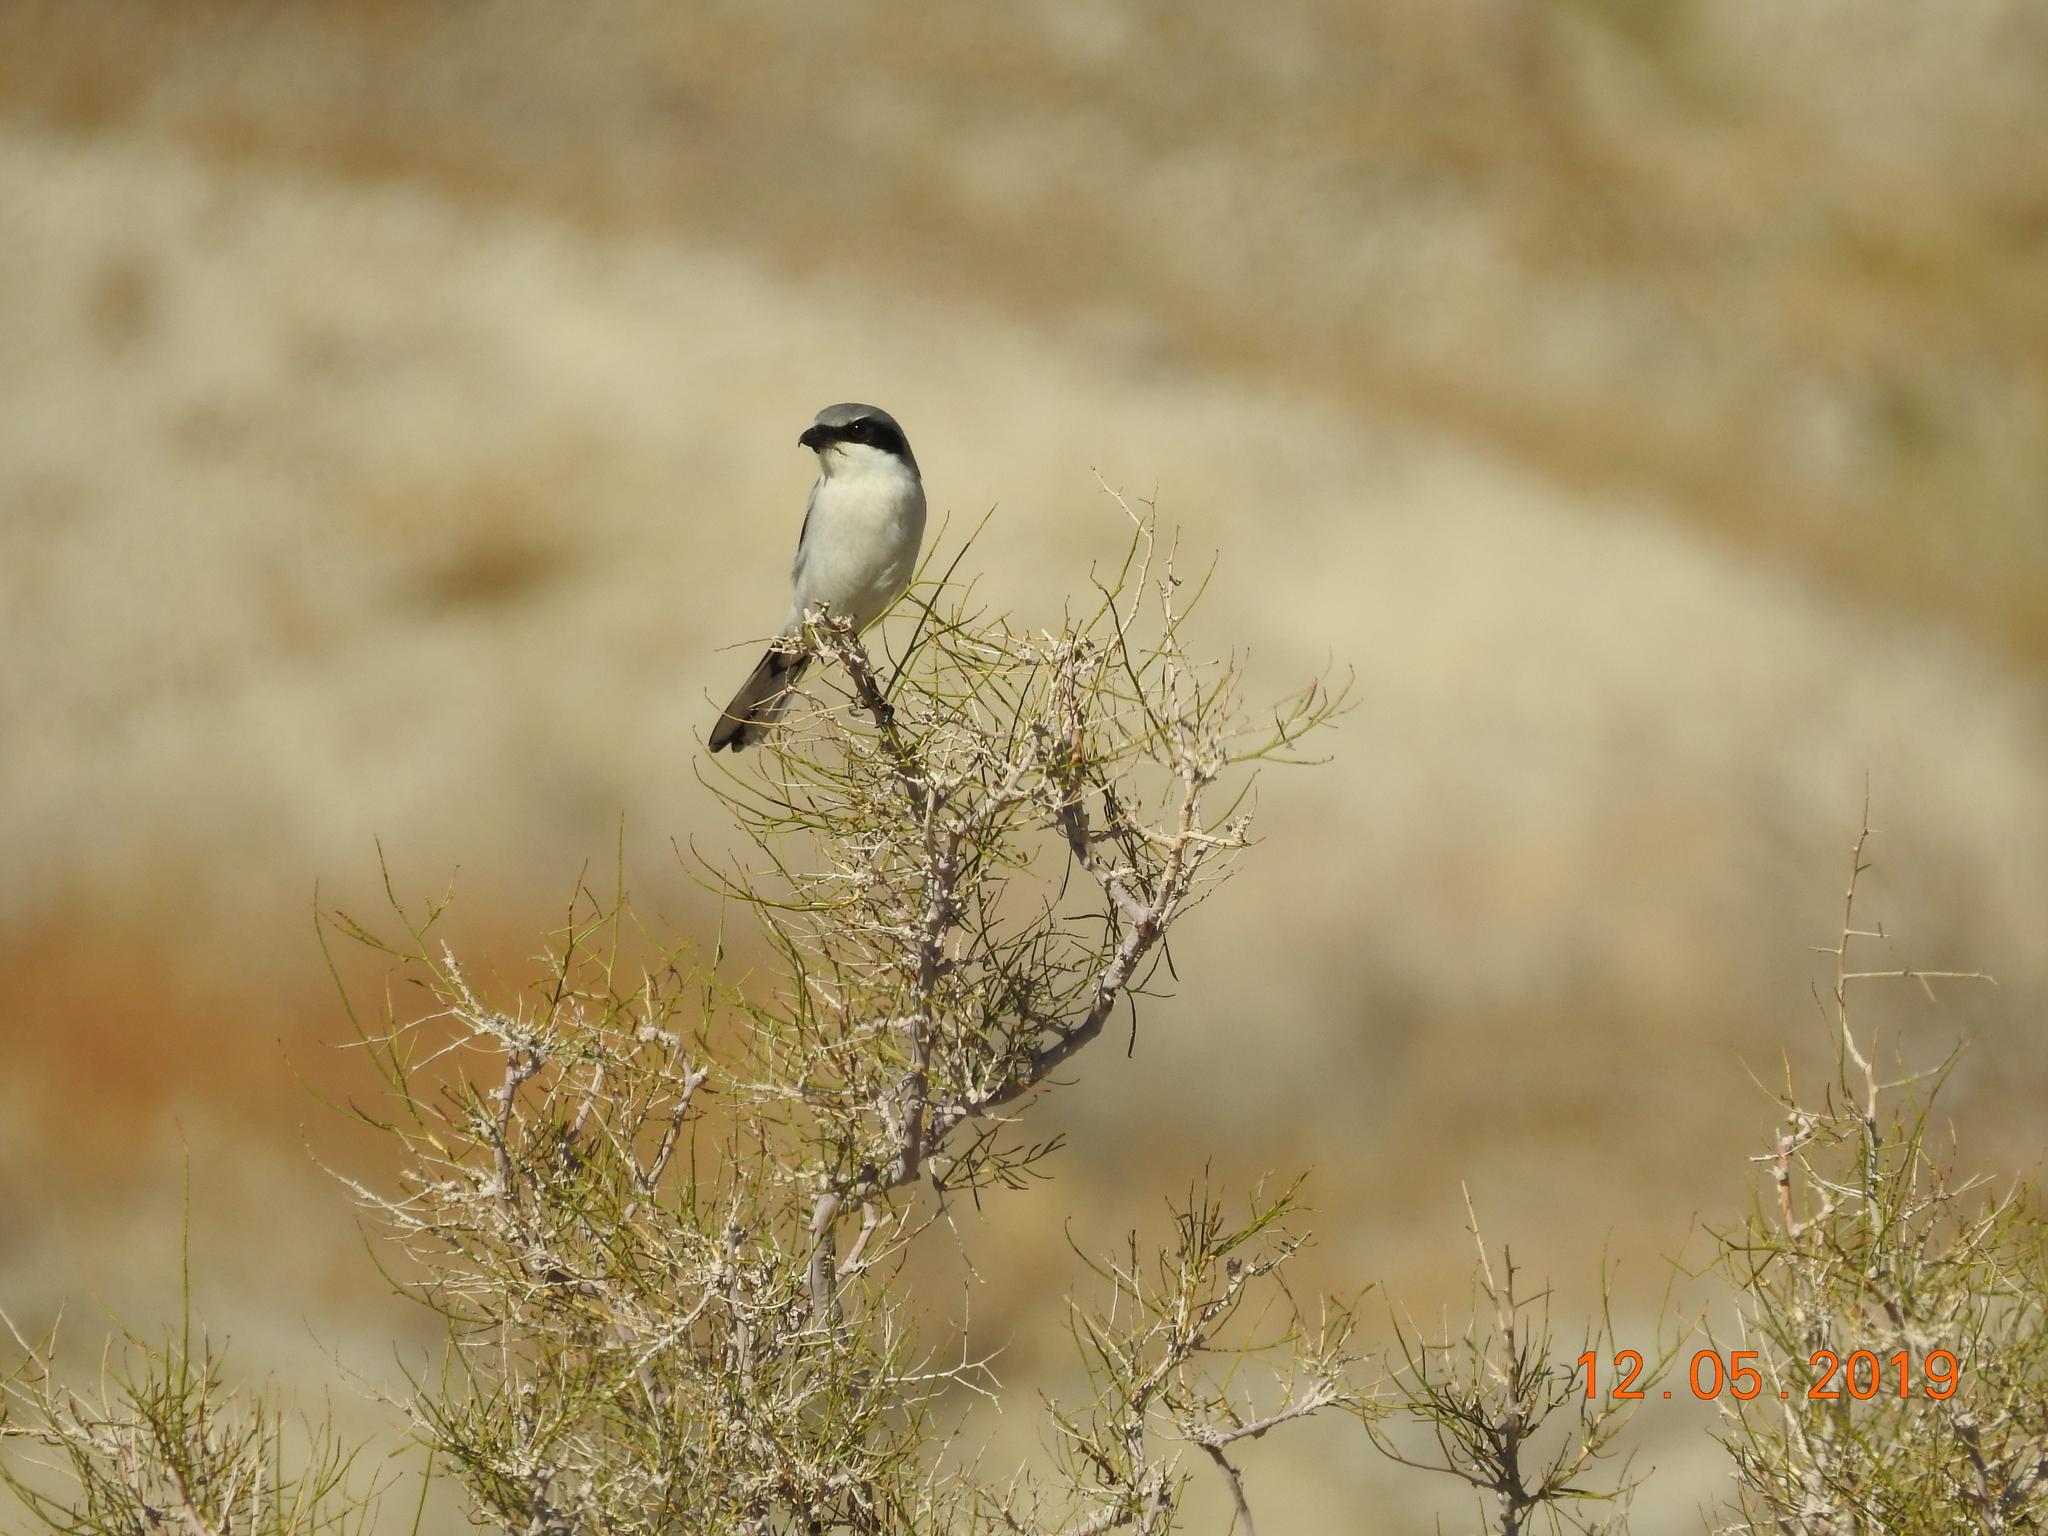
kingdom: Animalia
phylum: Chordata
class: Aves
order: Passeriformes
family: Laniidae
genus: Lanius
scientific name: Lanius ludovicianus
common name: Loggerhead shrike
